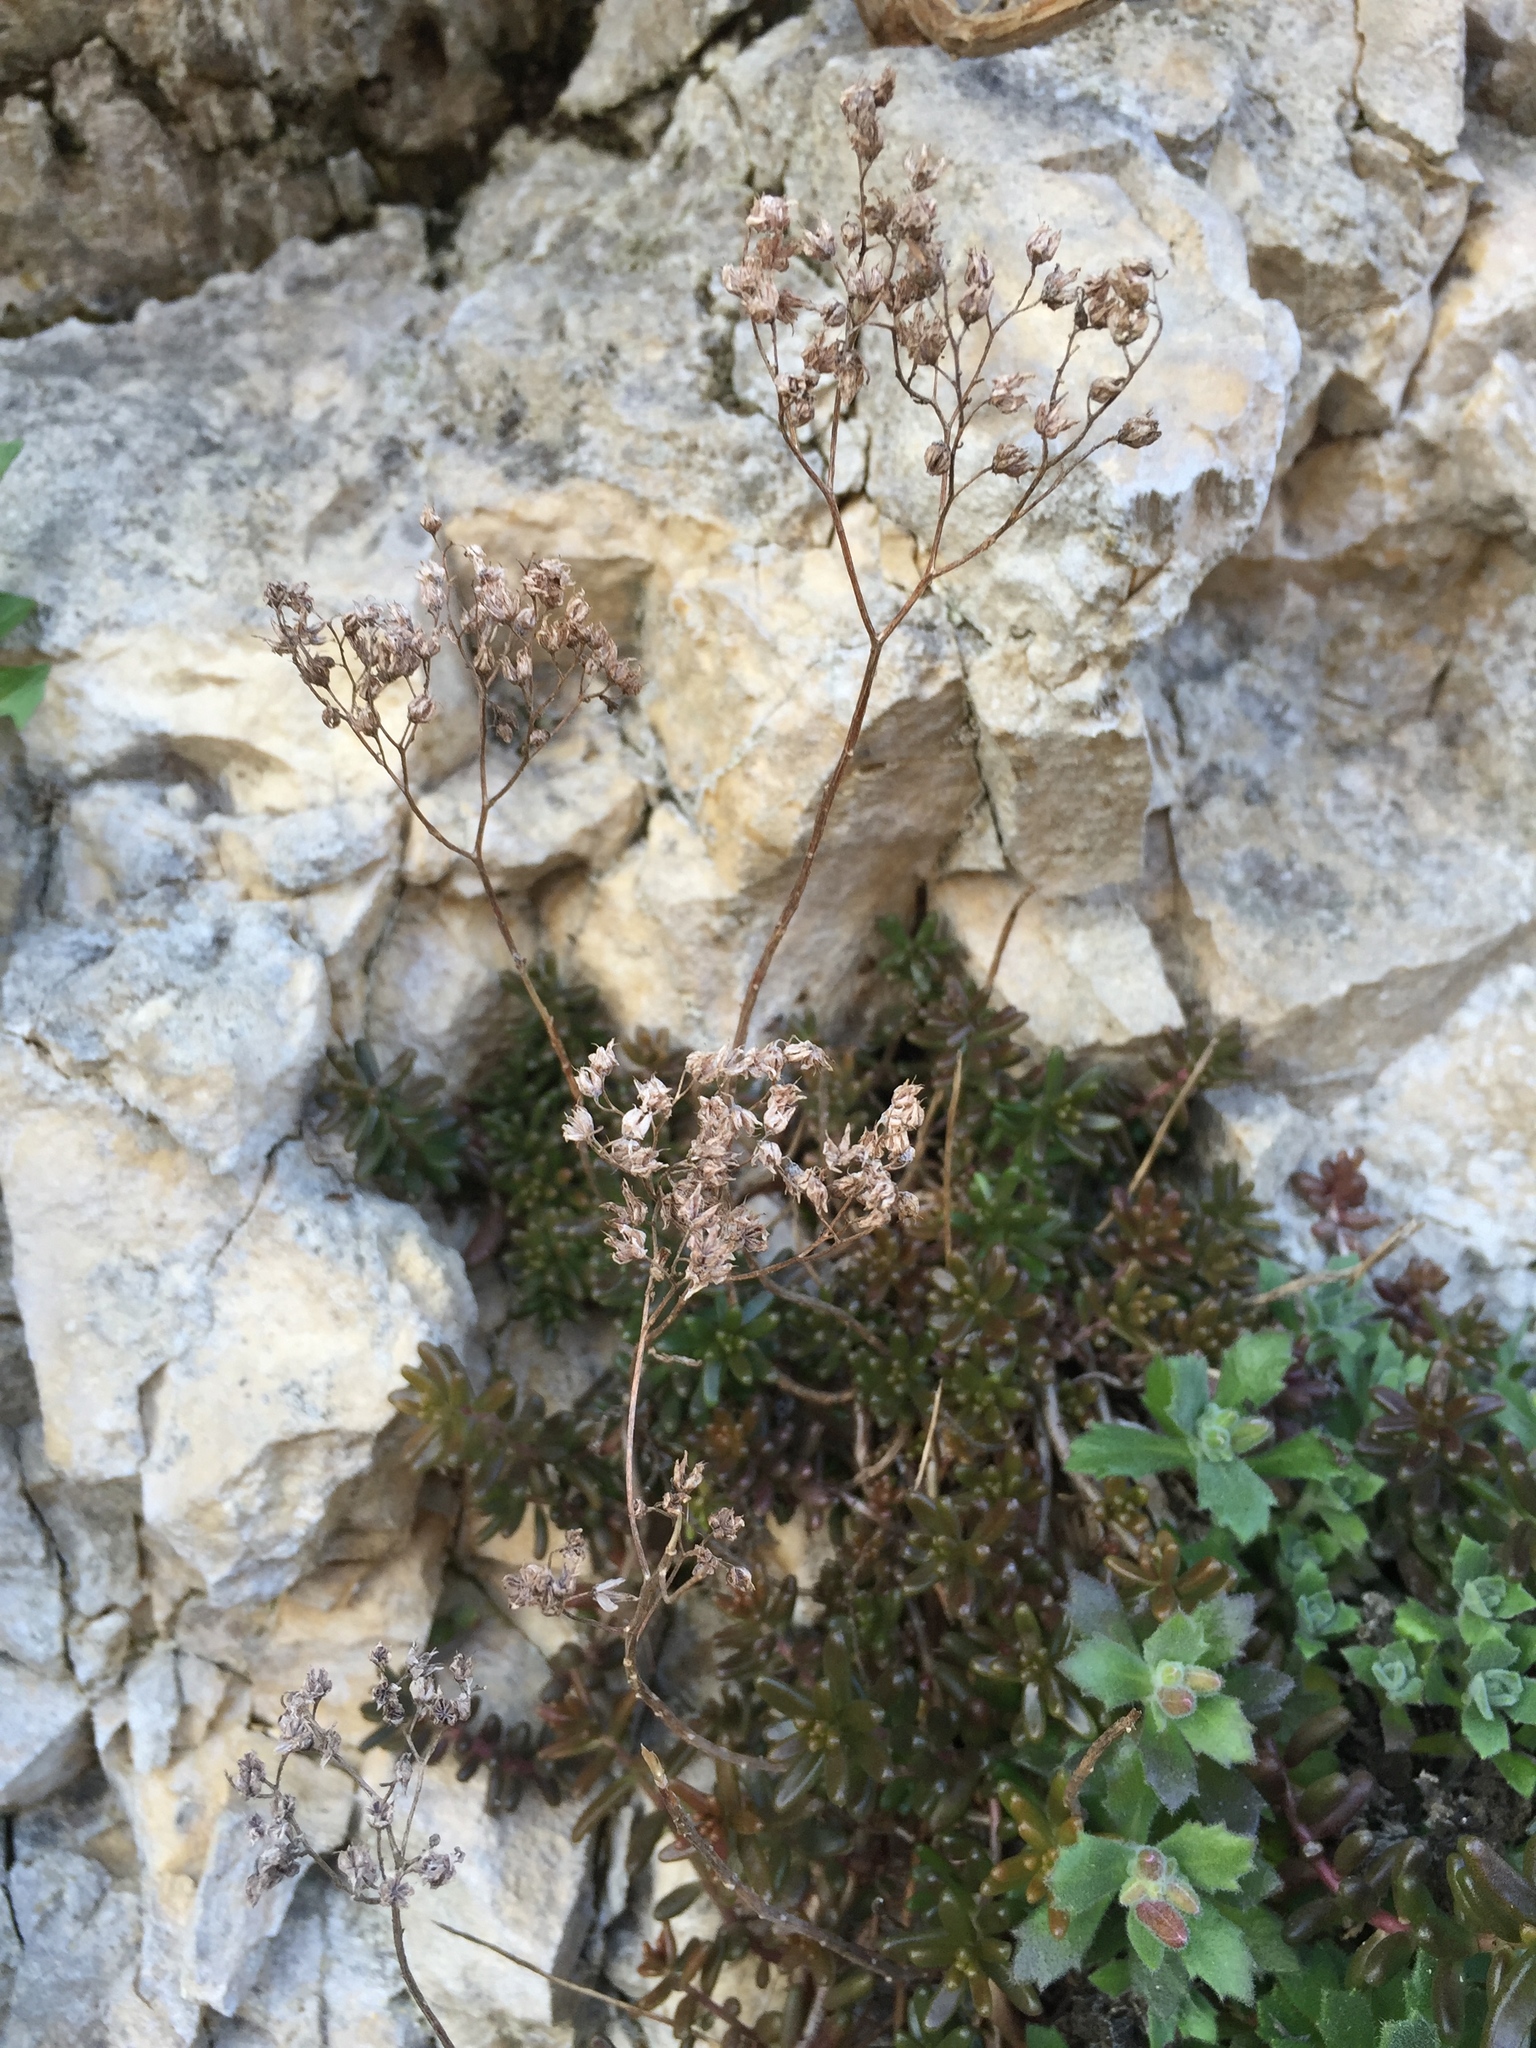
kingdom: Plantae
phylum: Tracheophyta
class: Magnoliopsida
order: Saxifragales
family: Crassulaceae
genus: Sedum
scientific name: Sedum album
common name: White stonecrop
